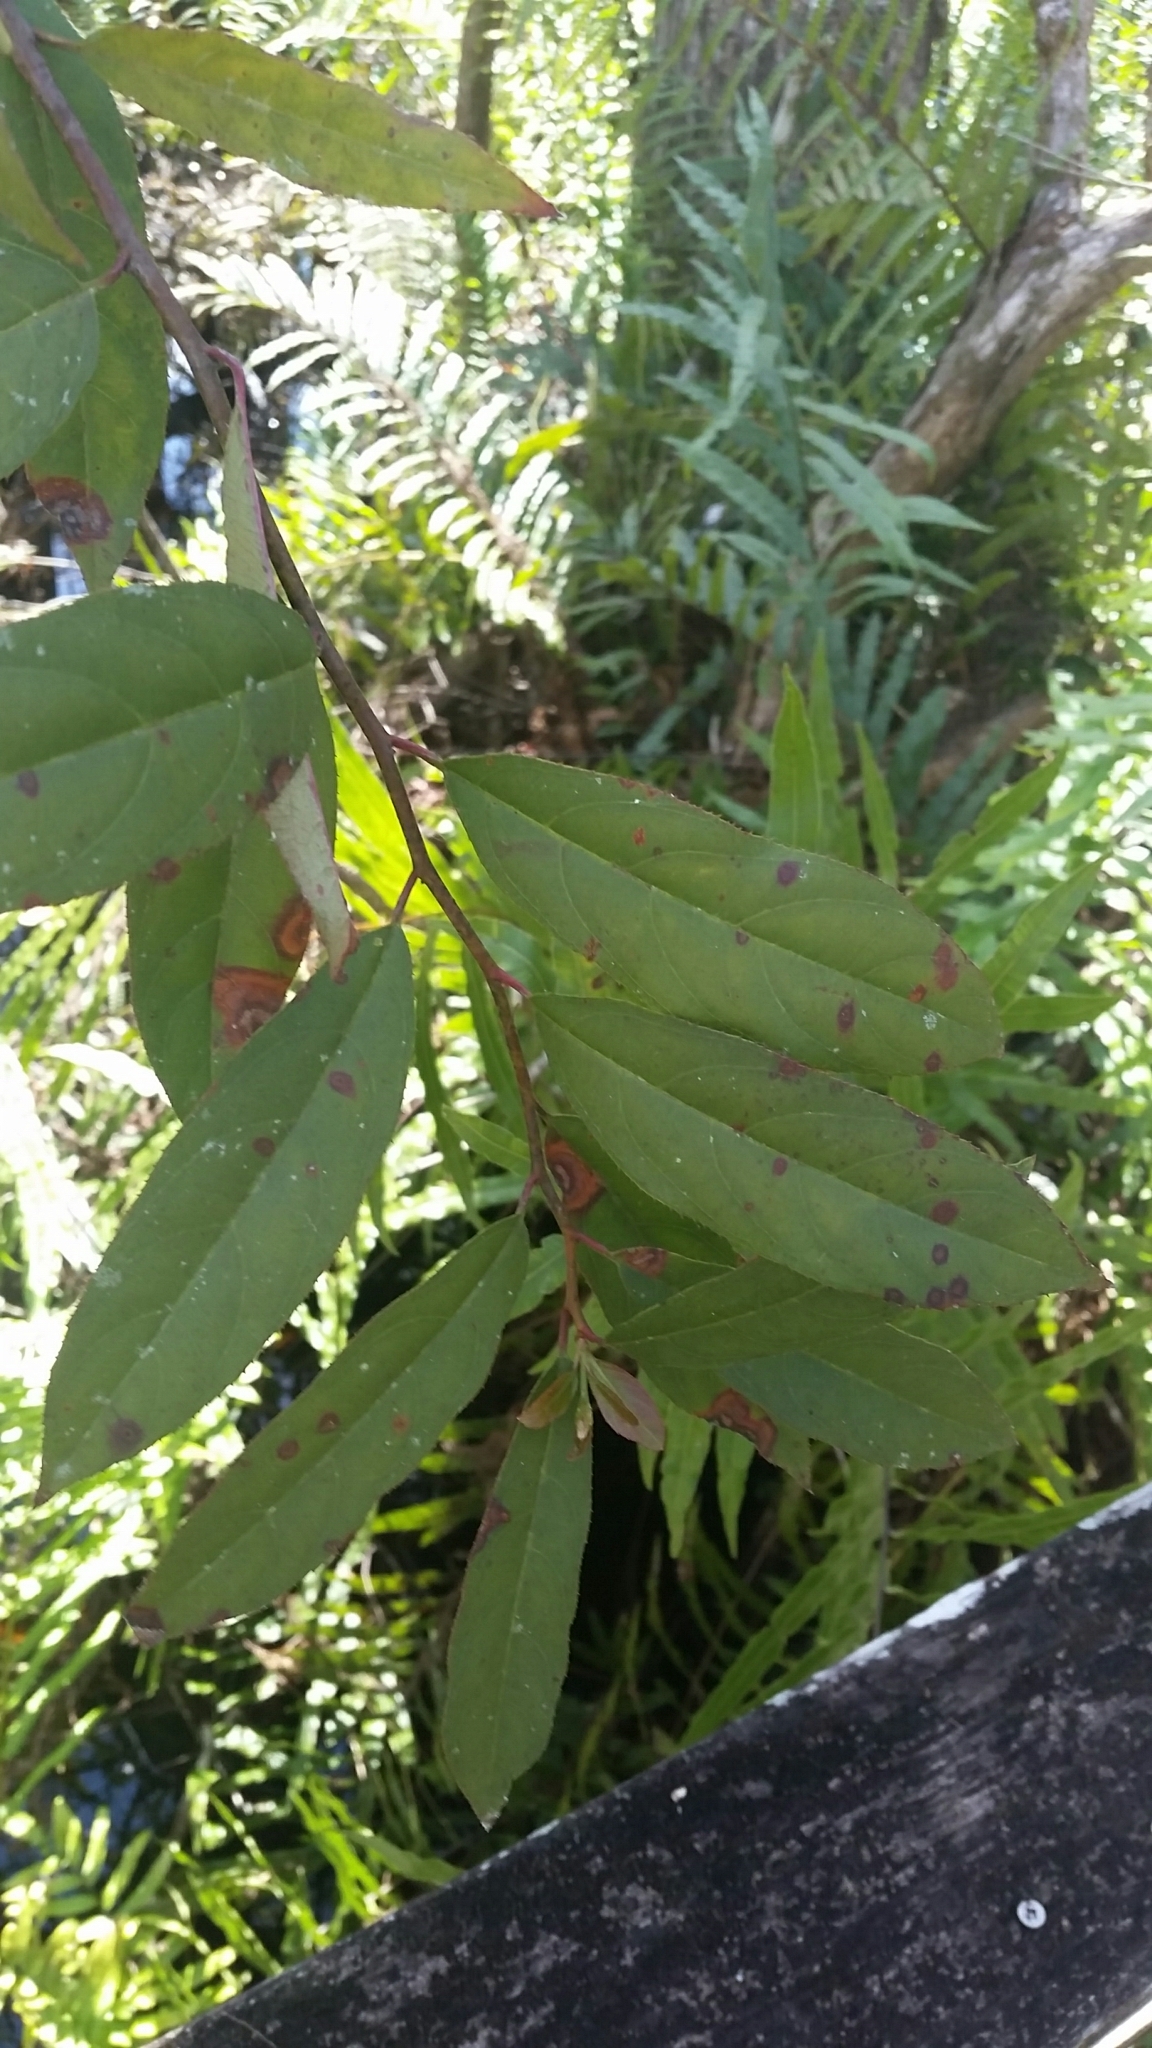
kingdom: Plantae
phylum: Tracheophyta
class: Magnoliopsida
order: Saxifragales
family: Iteaceae
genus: Itea
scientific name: Itea virginica
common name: Sweetspire
